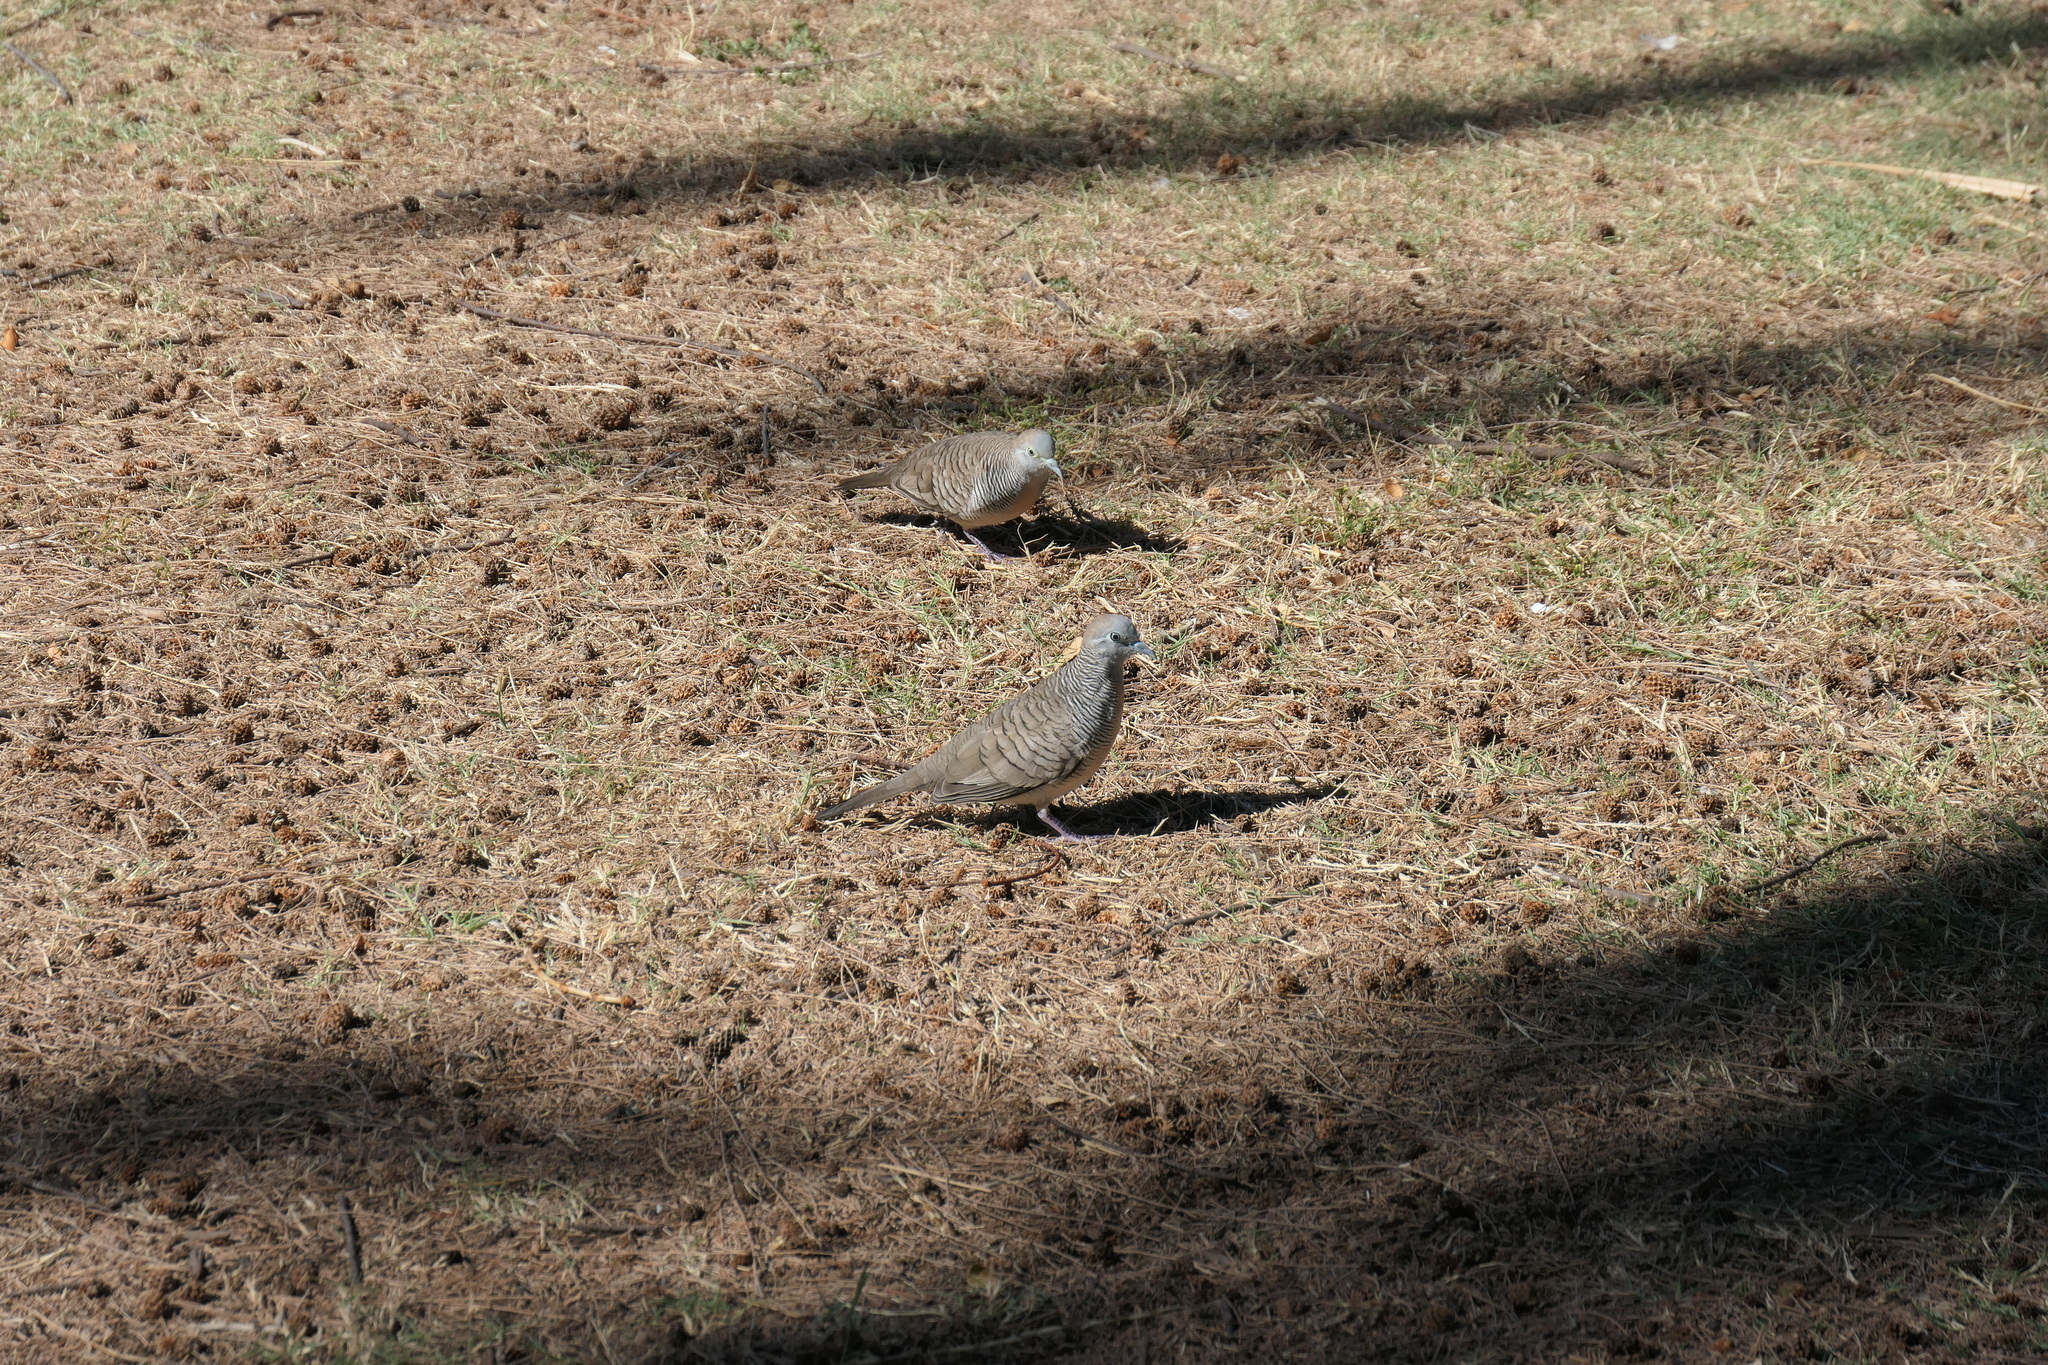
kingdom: Animalia
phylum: Chordata
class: Aves
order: Columbiformes
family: Columbidae
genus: Geopelia
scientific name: Geopelia striata
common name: Zebra dove
